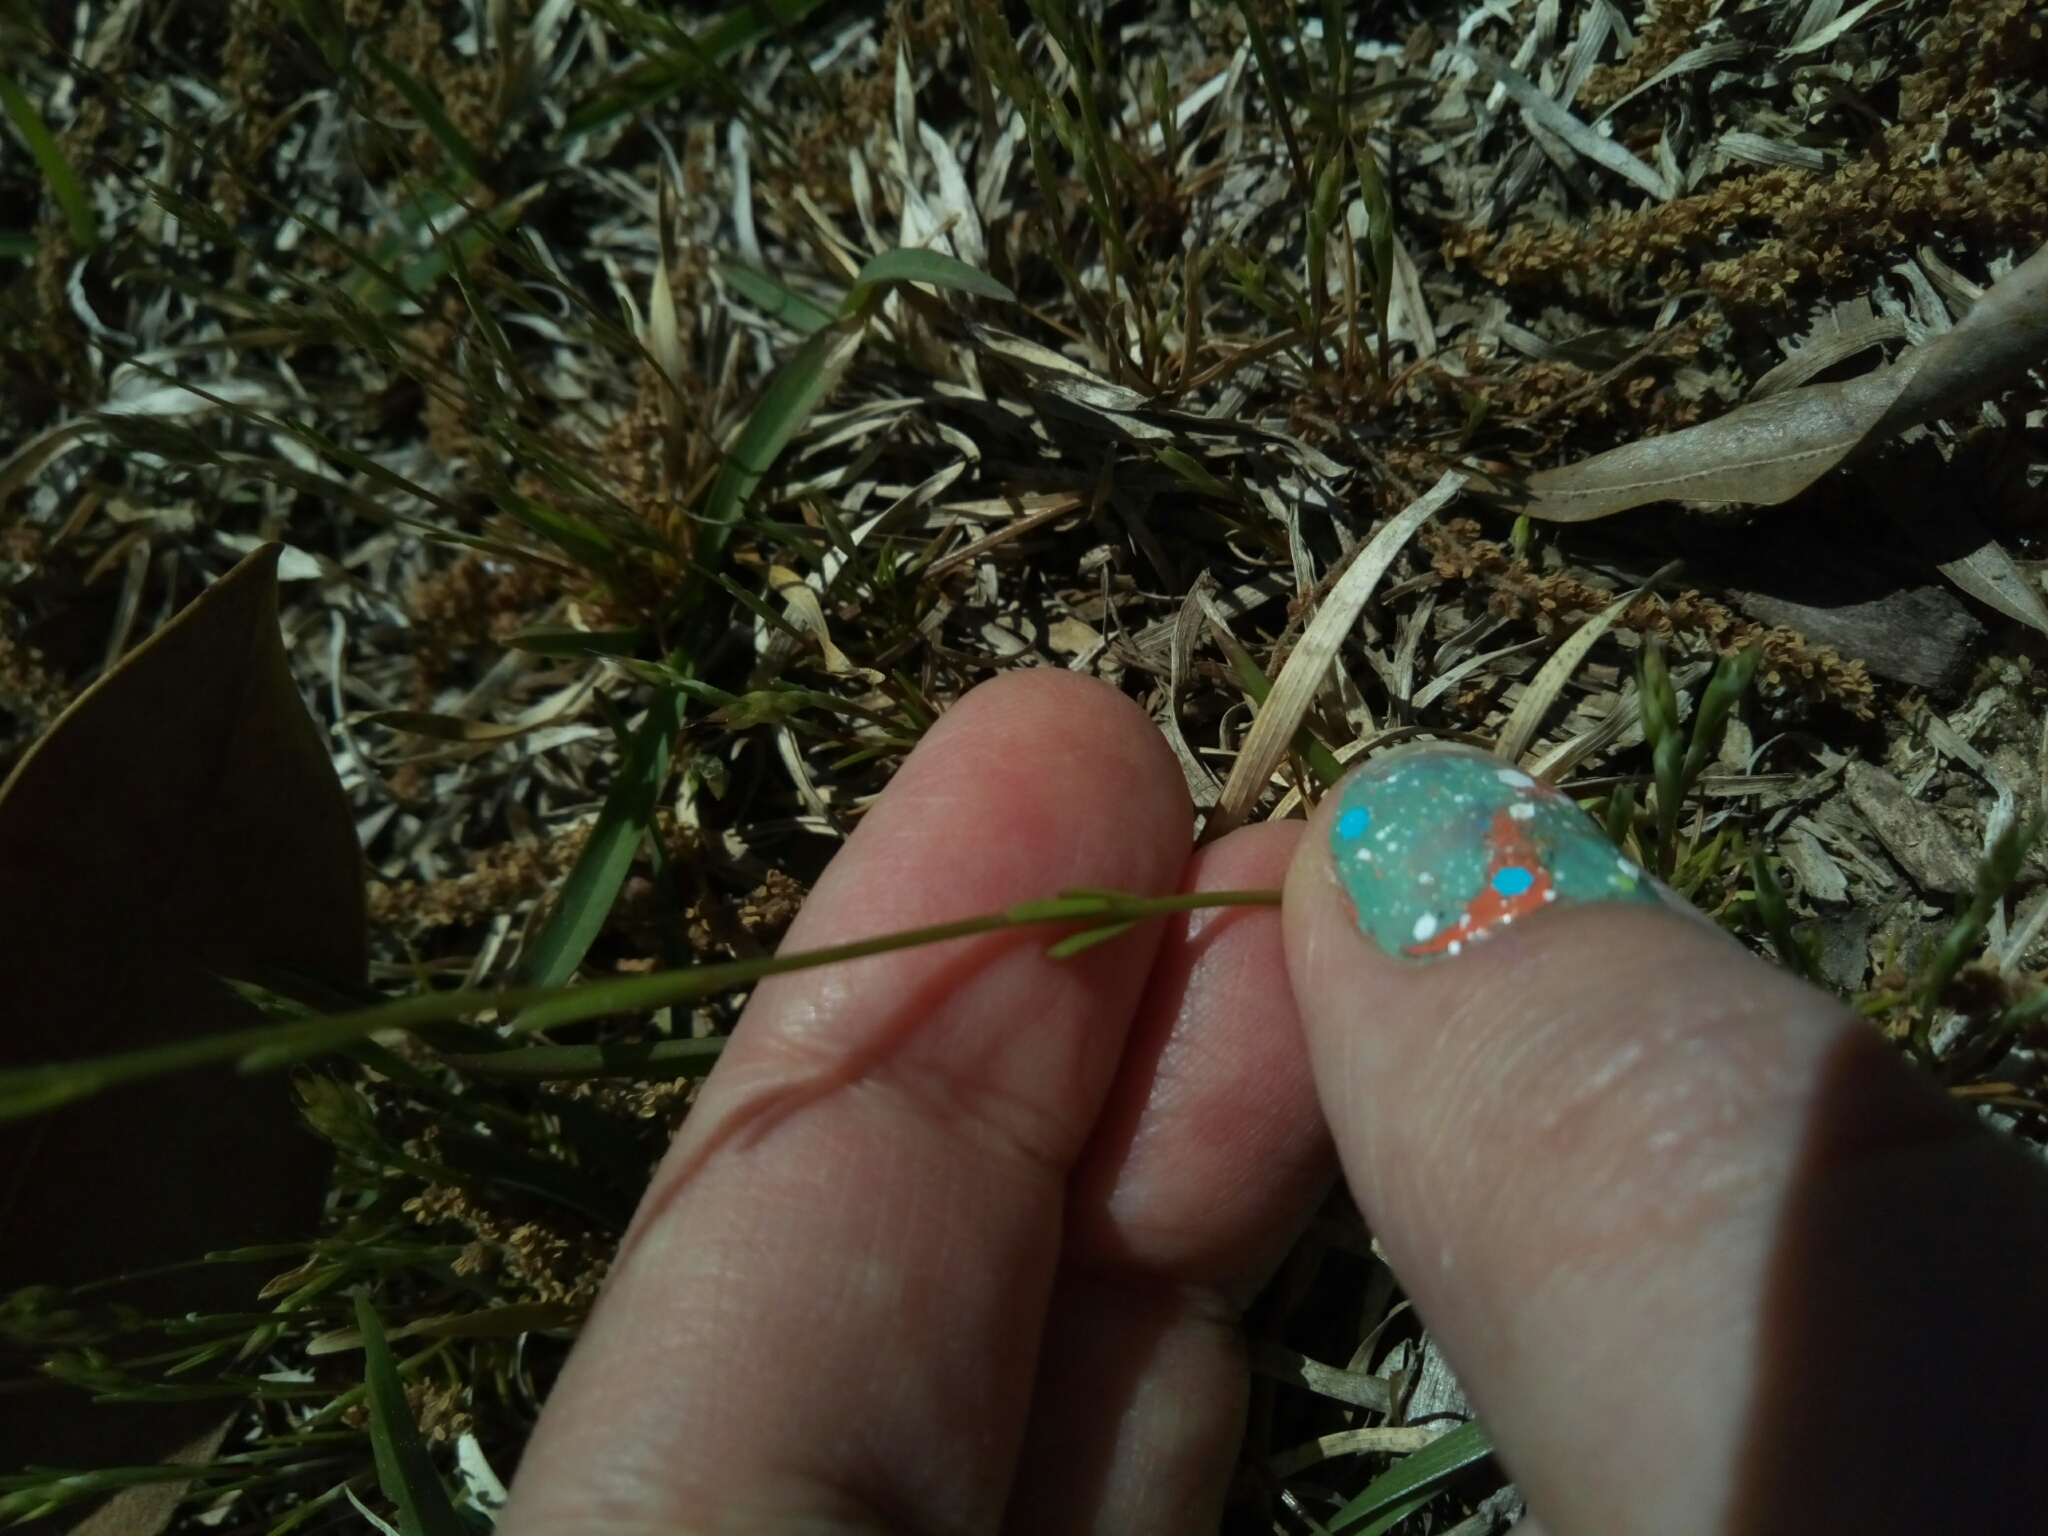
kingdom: Plantae
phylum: Tracheophyta
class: Magnoliopsida
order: Lamiales
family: Plantaginaceae
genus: Nuttallanthus
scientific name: Nuttallanthus canadensis
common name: Blue toadflax
